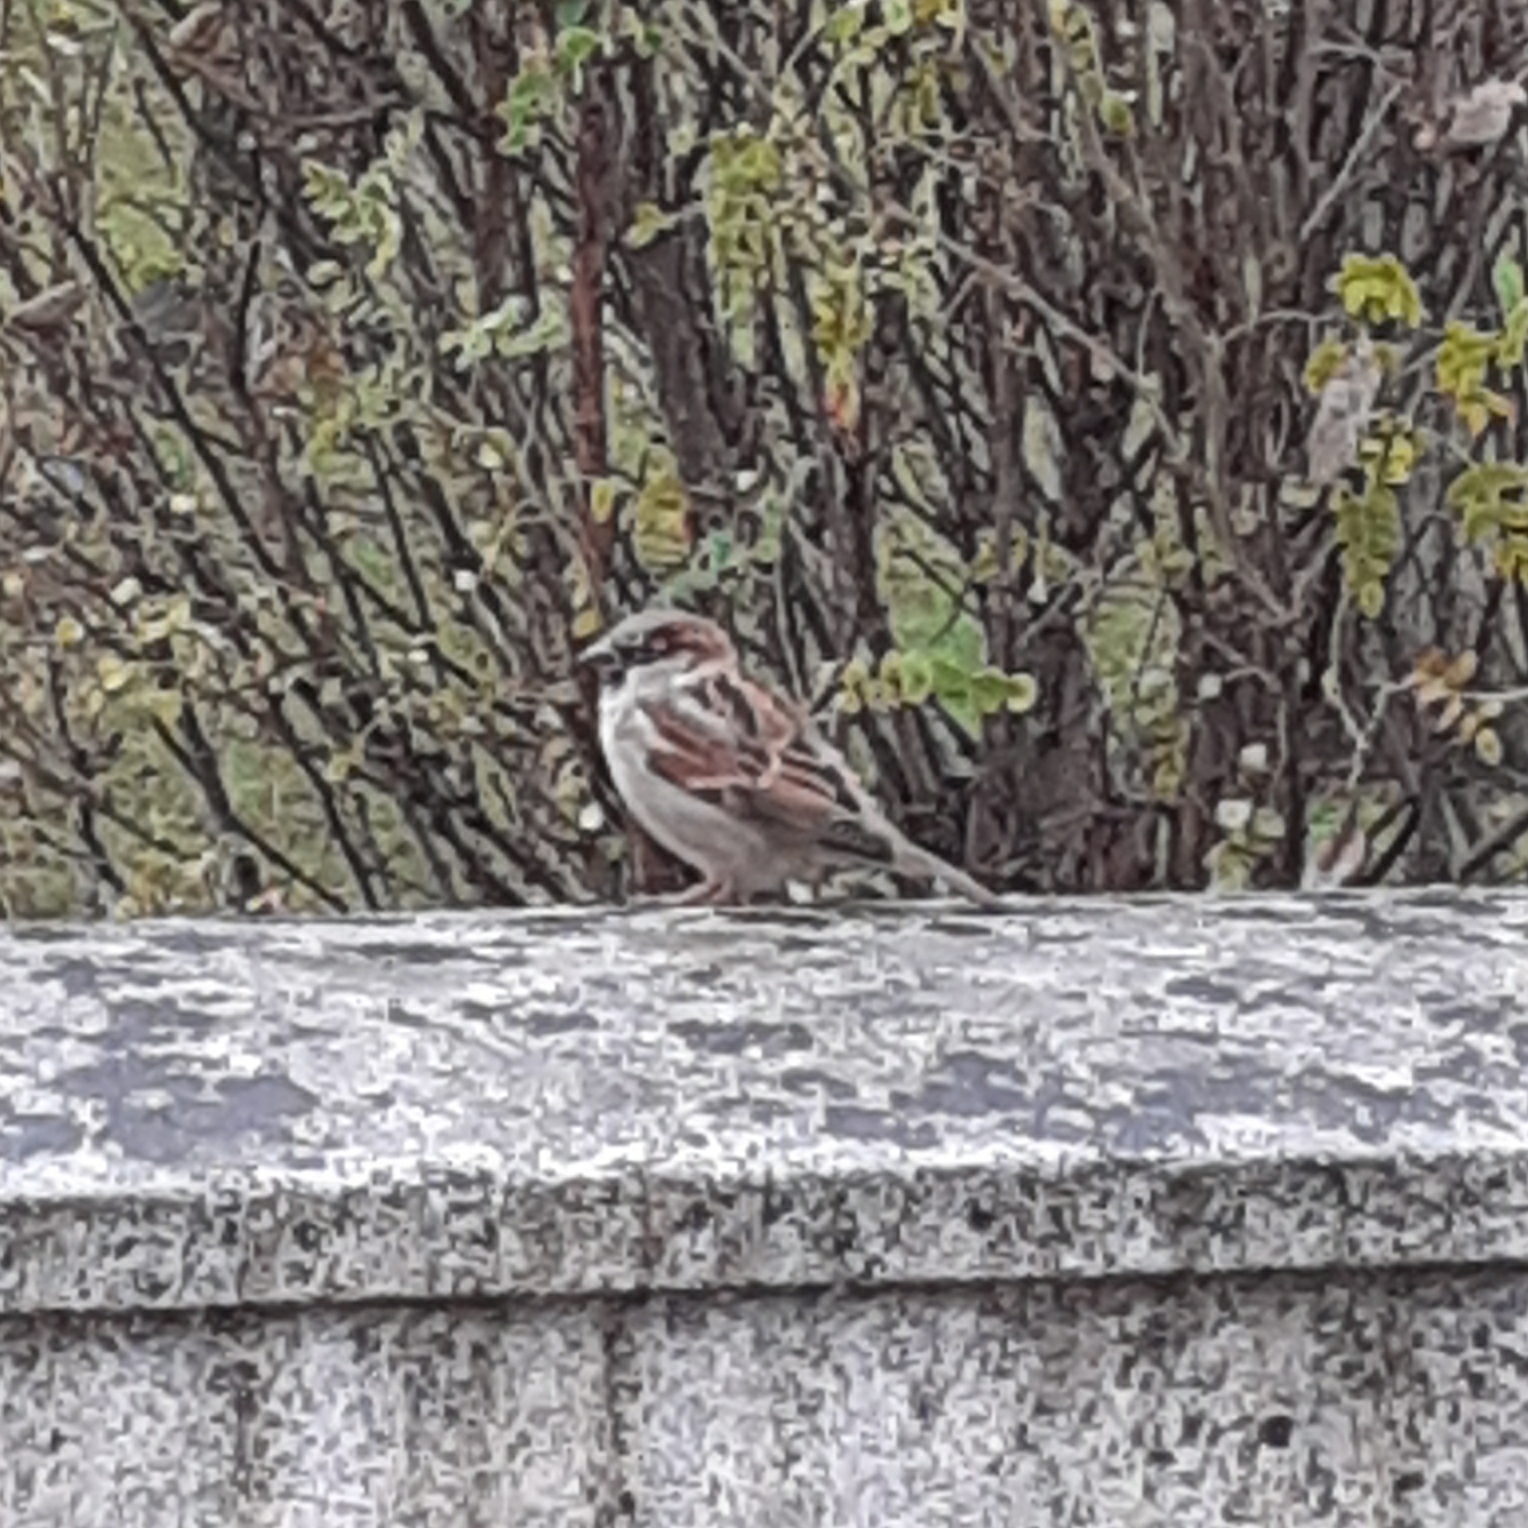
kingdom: Animalia
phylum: Chordata
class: Aves
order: Passeriformes
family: Passeridae
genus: Passer
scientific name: Passer domesticus
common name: House sparrow
